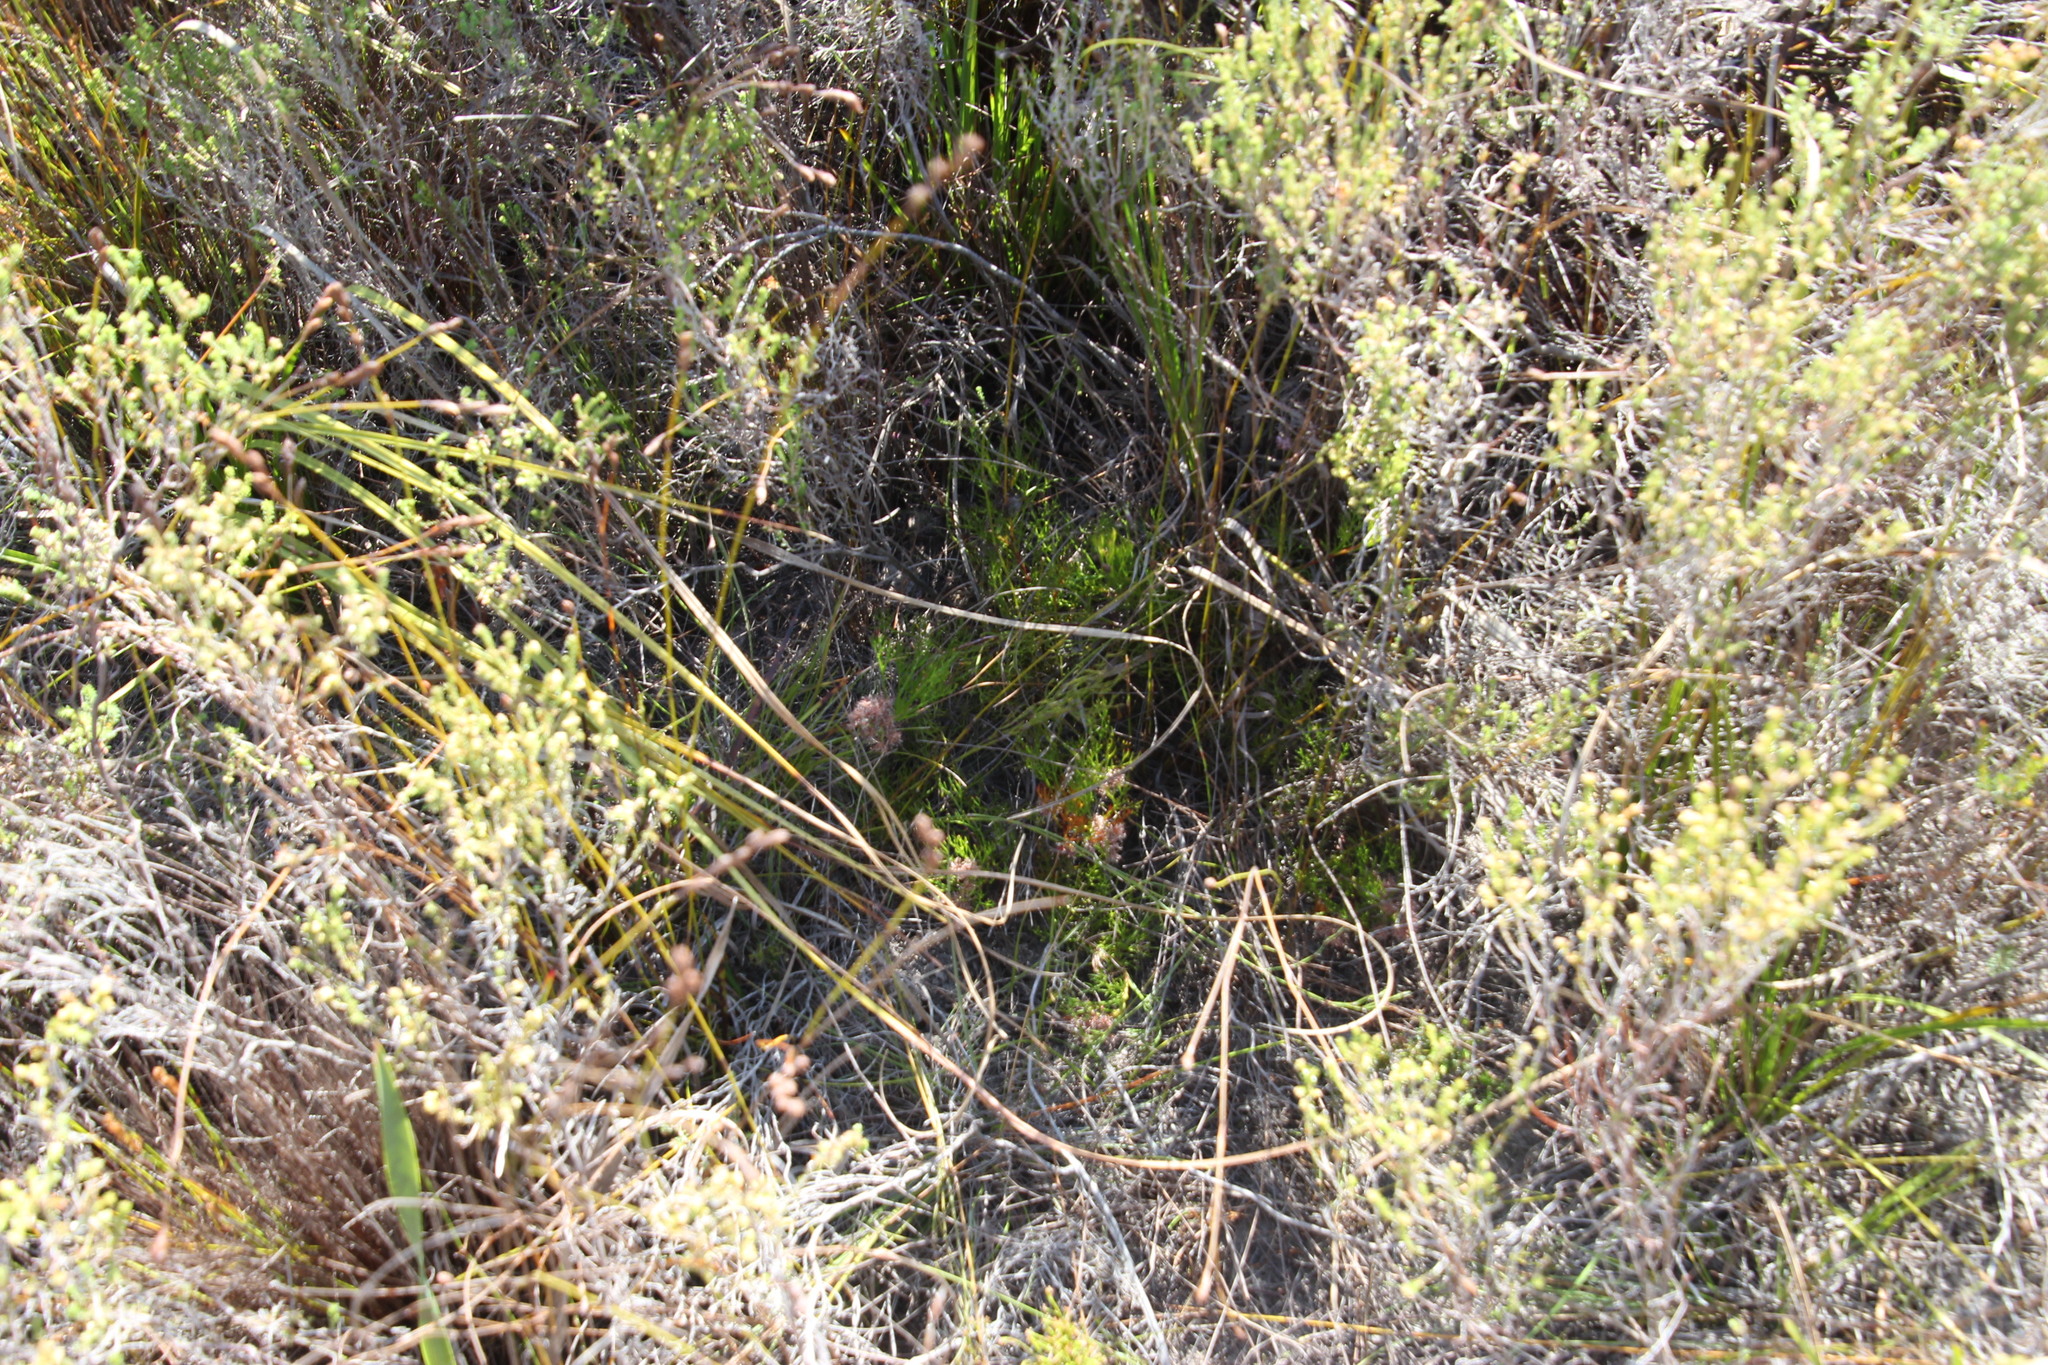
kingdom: Plantae
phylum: Tracheophyta
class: Magnoliopsida
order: Proteales
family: Proteaceae
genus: Serruria
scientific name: Serruria
